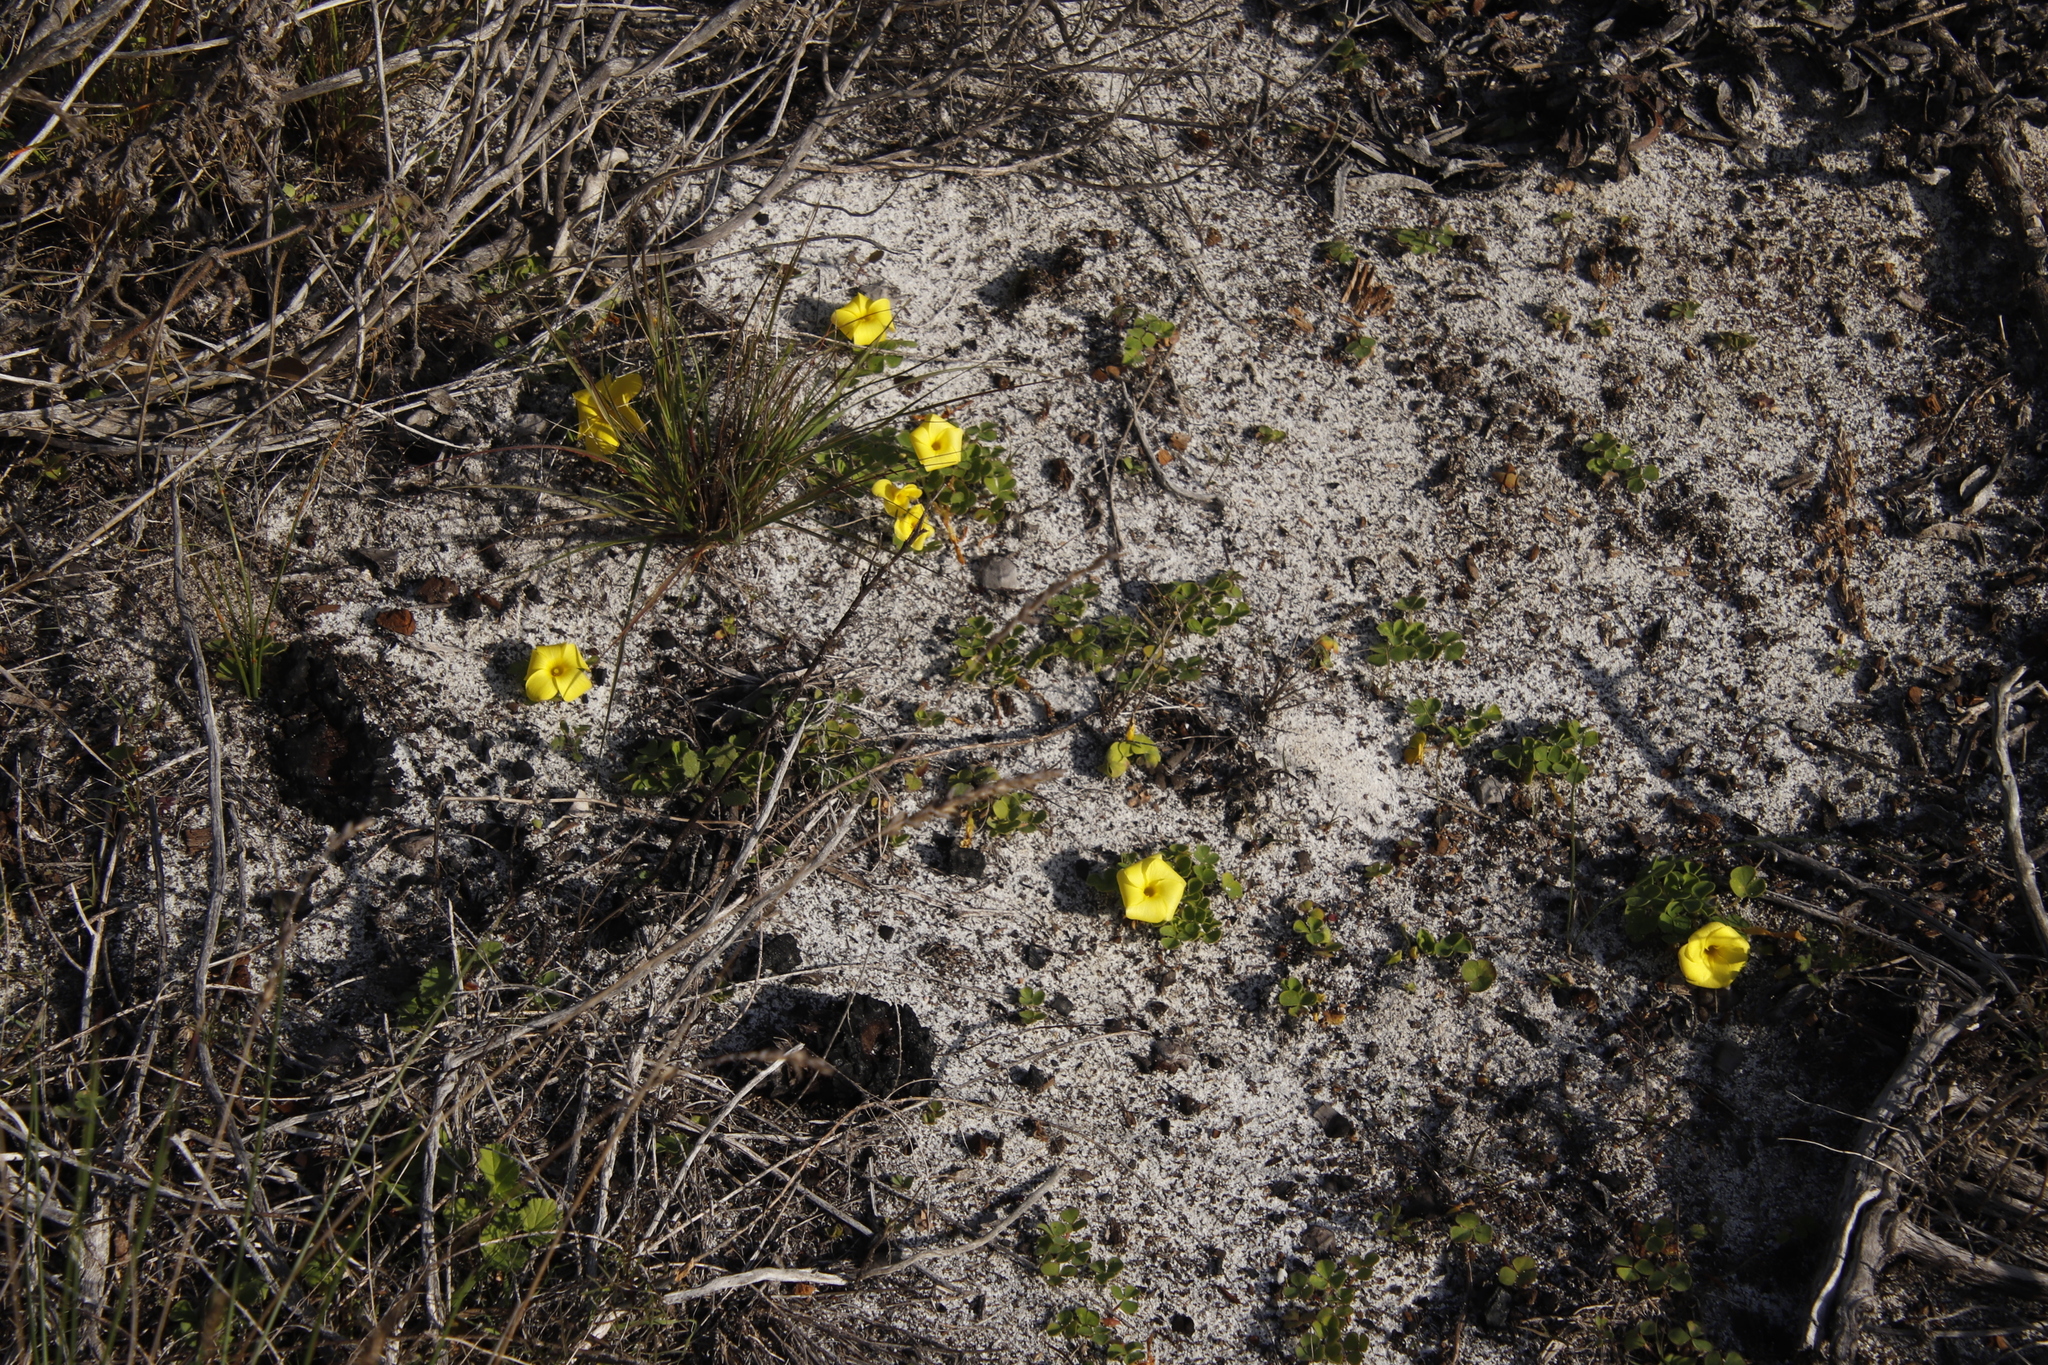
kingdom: Plantae
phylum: Tracheophyta
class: Magnoliopsida
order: Oxalidales
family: Oxalidaceae
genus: Oxalis
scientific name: Oxalis luteola
